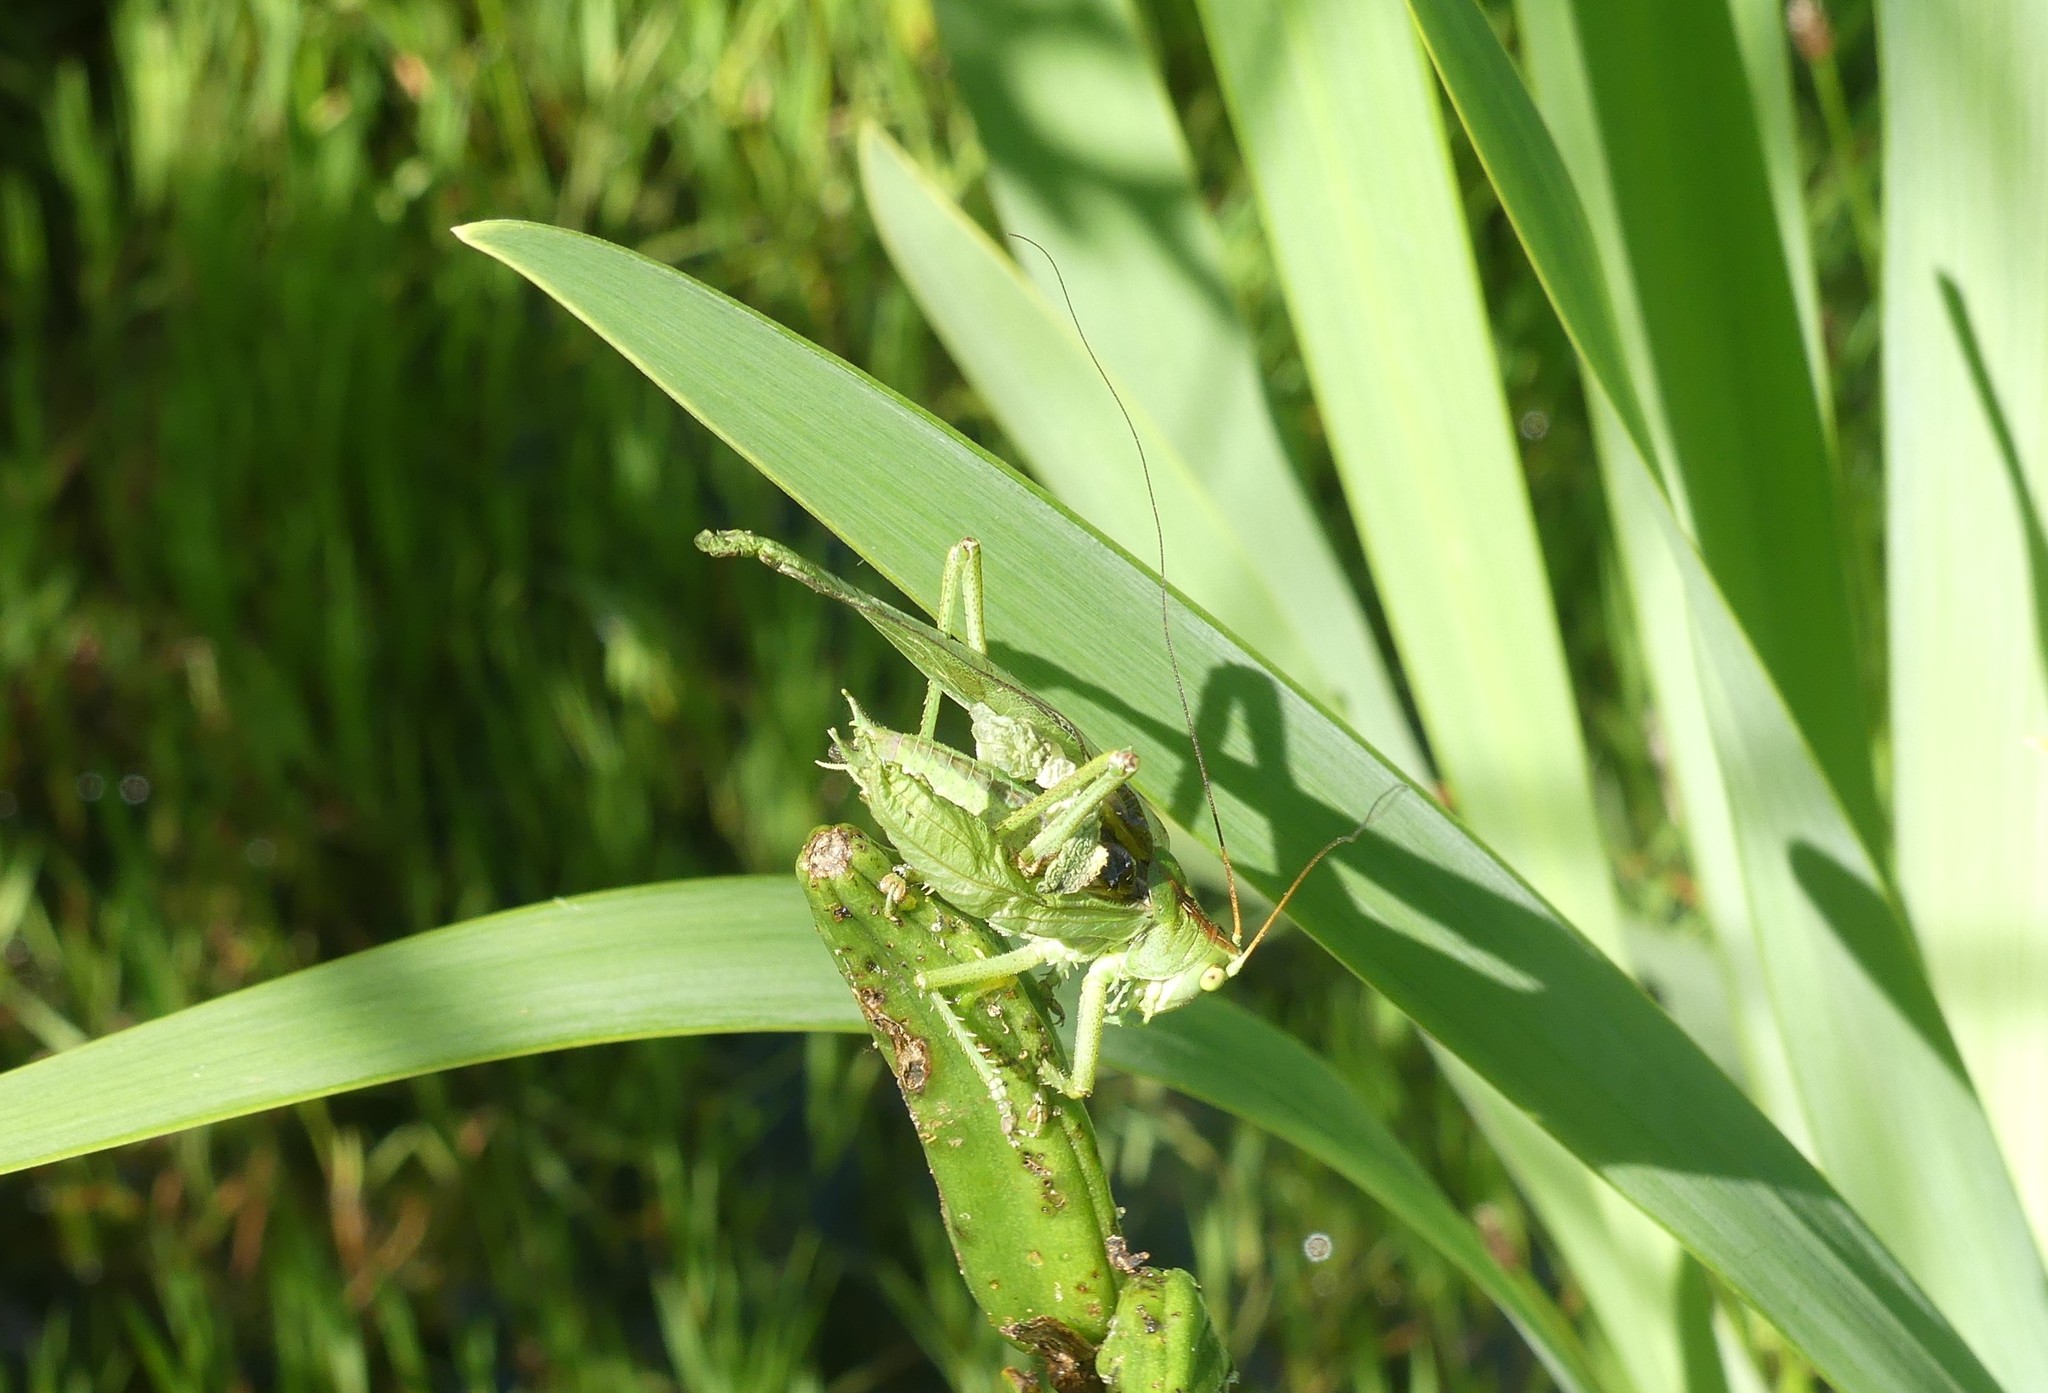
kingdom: Animalia
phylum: Arthropoda
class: Insecta
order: Orthoptera
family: Tettigoniidae
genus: Tettigonia
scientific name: Tettigonia viridissima
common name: Great green bush-cricket
